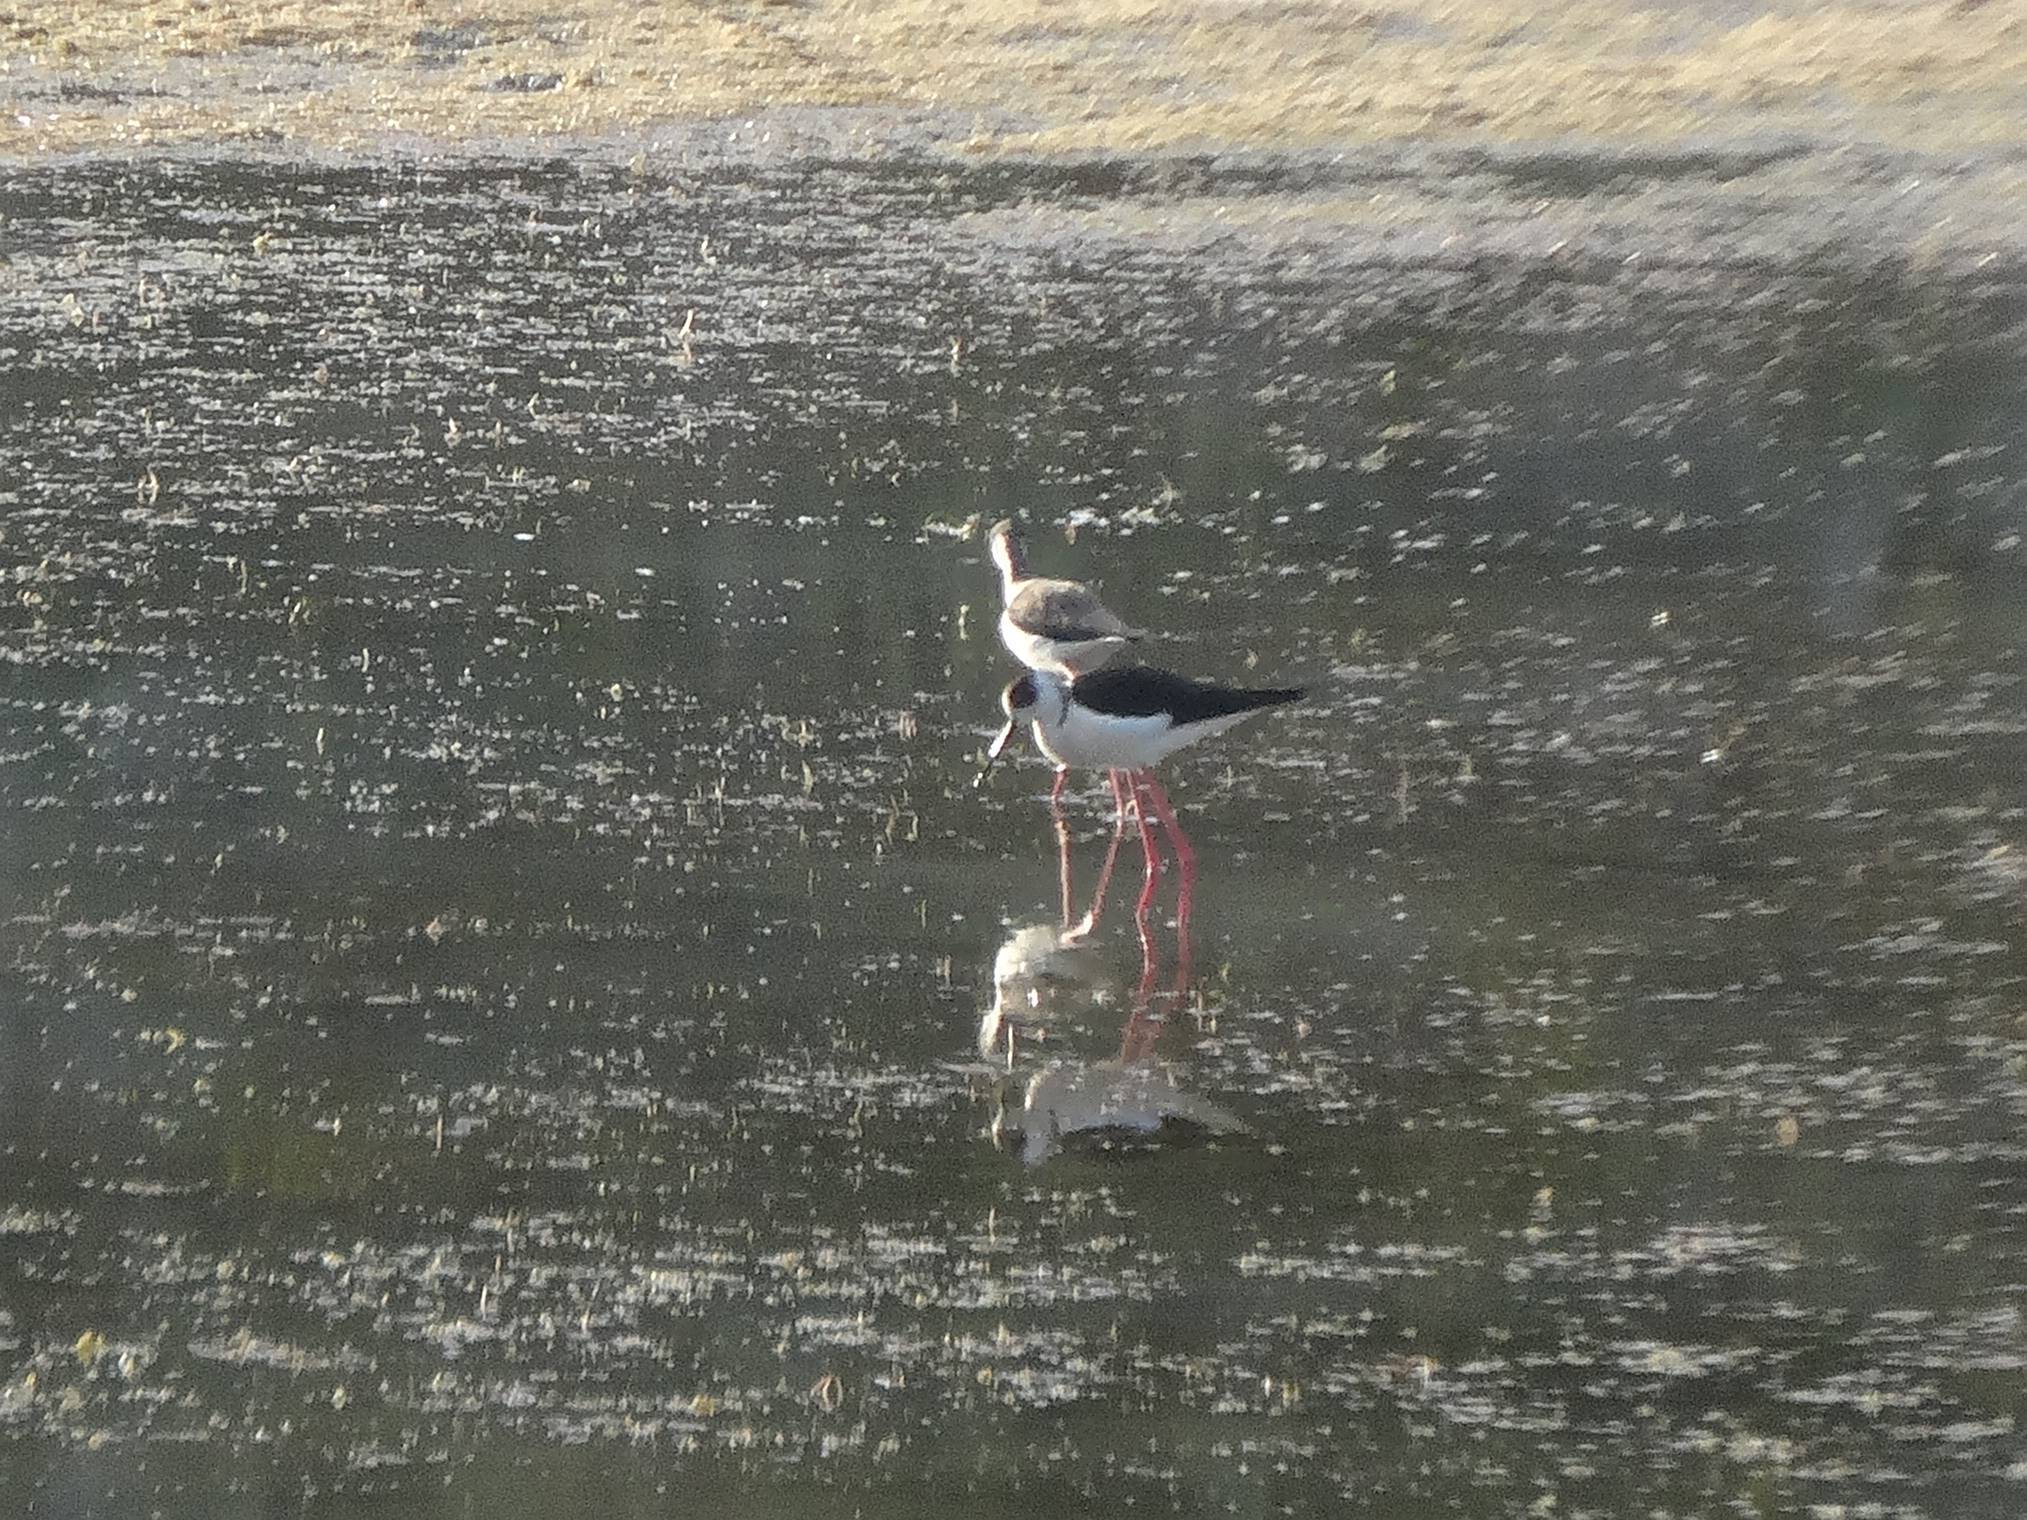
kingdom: Animalia
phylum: Chordata
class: Aves
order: Charadriiformes
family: Recurvirostridae
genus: Himantopus
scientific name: Himantopus himantopus
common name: Black-winged stilt
